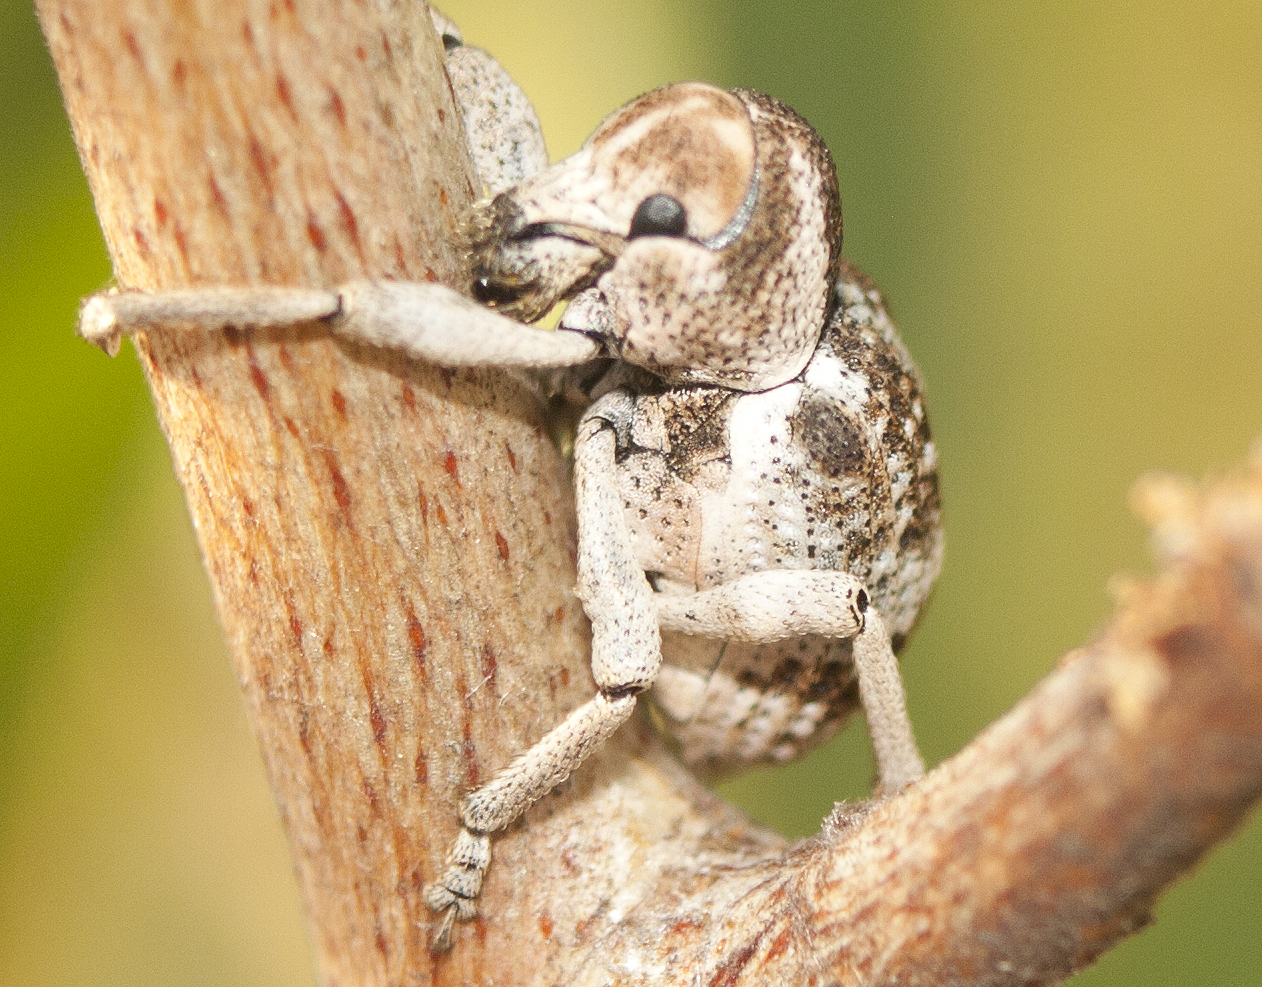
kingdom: Animalia
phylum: Arthropoda
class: Insecta
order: Coleoptera
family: Curculionidae
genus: Aades
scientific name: Aades
